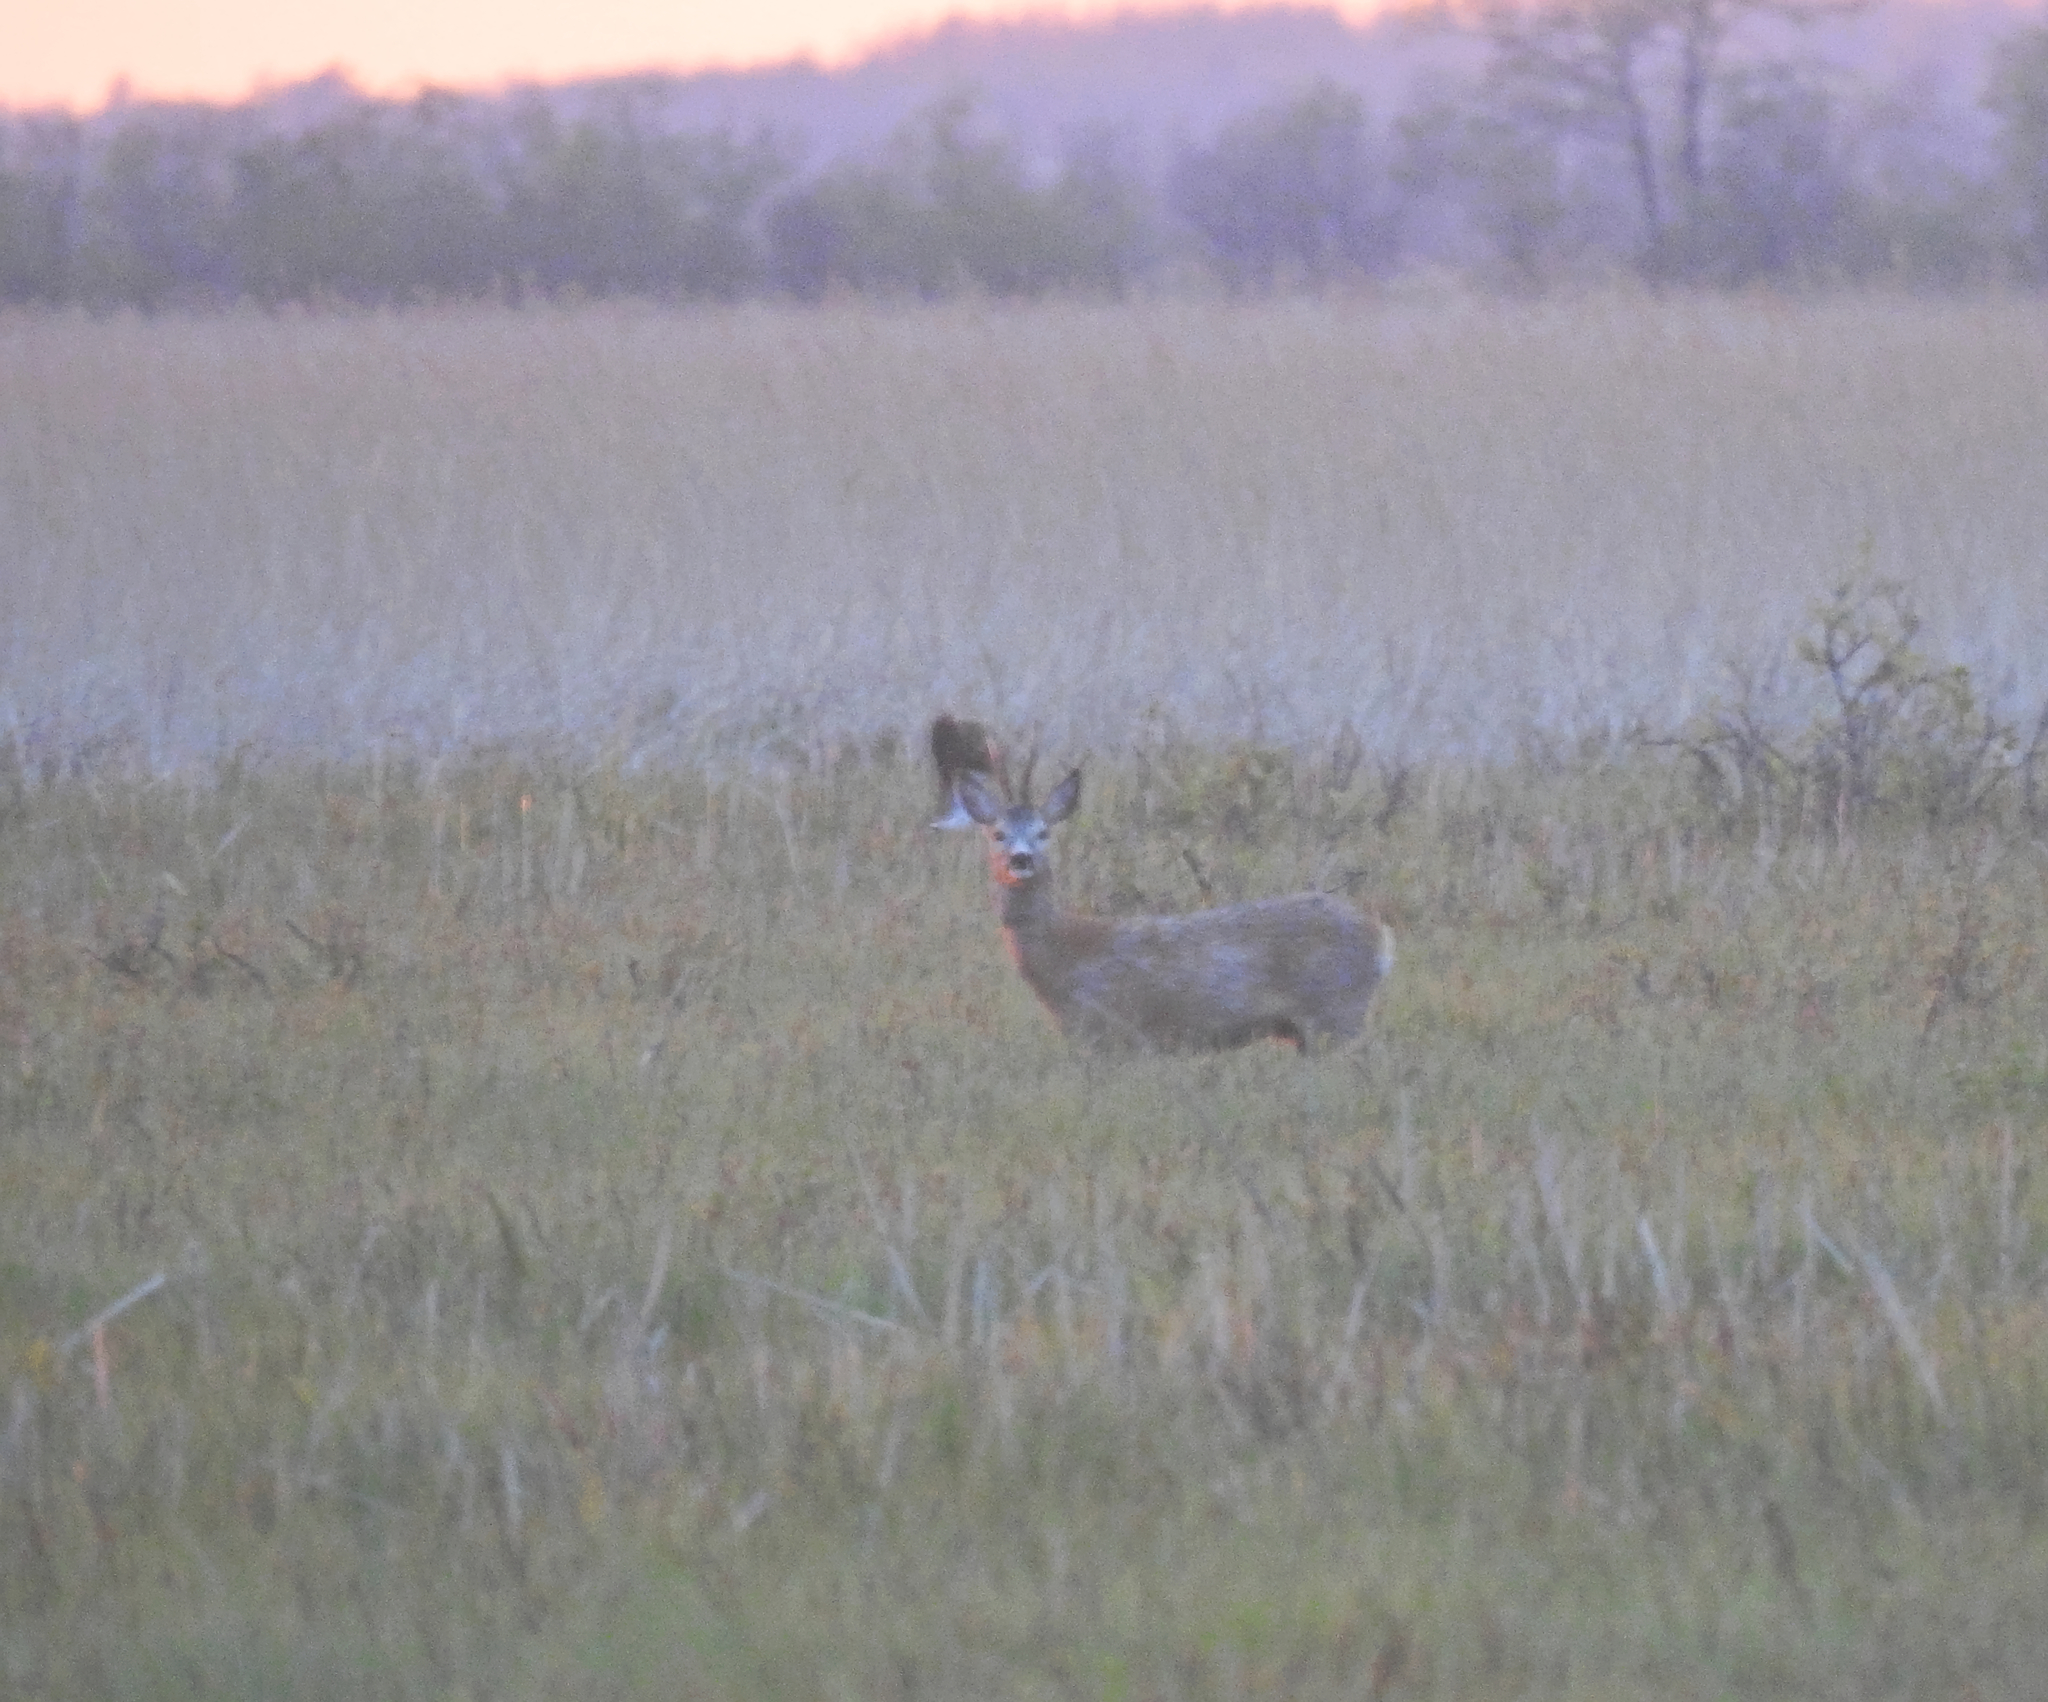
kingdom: Animalia
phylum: Chordata
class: Mammalia
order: Artiodactyla
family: Cervidae
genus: Capreolus
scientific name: Capreolus capreolus
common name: Western roe deer
